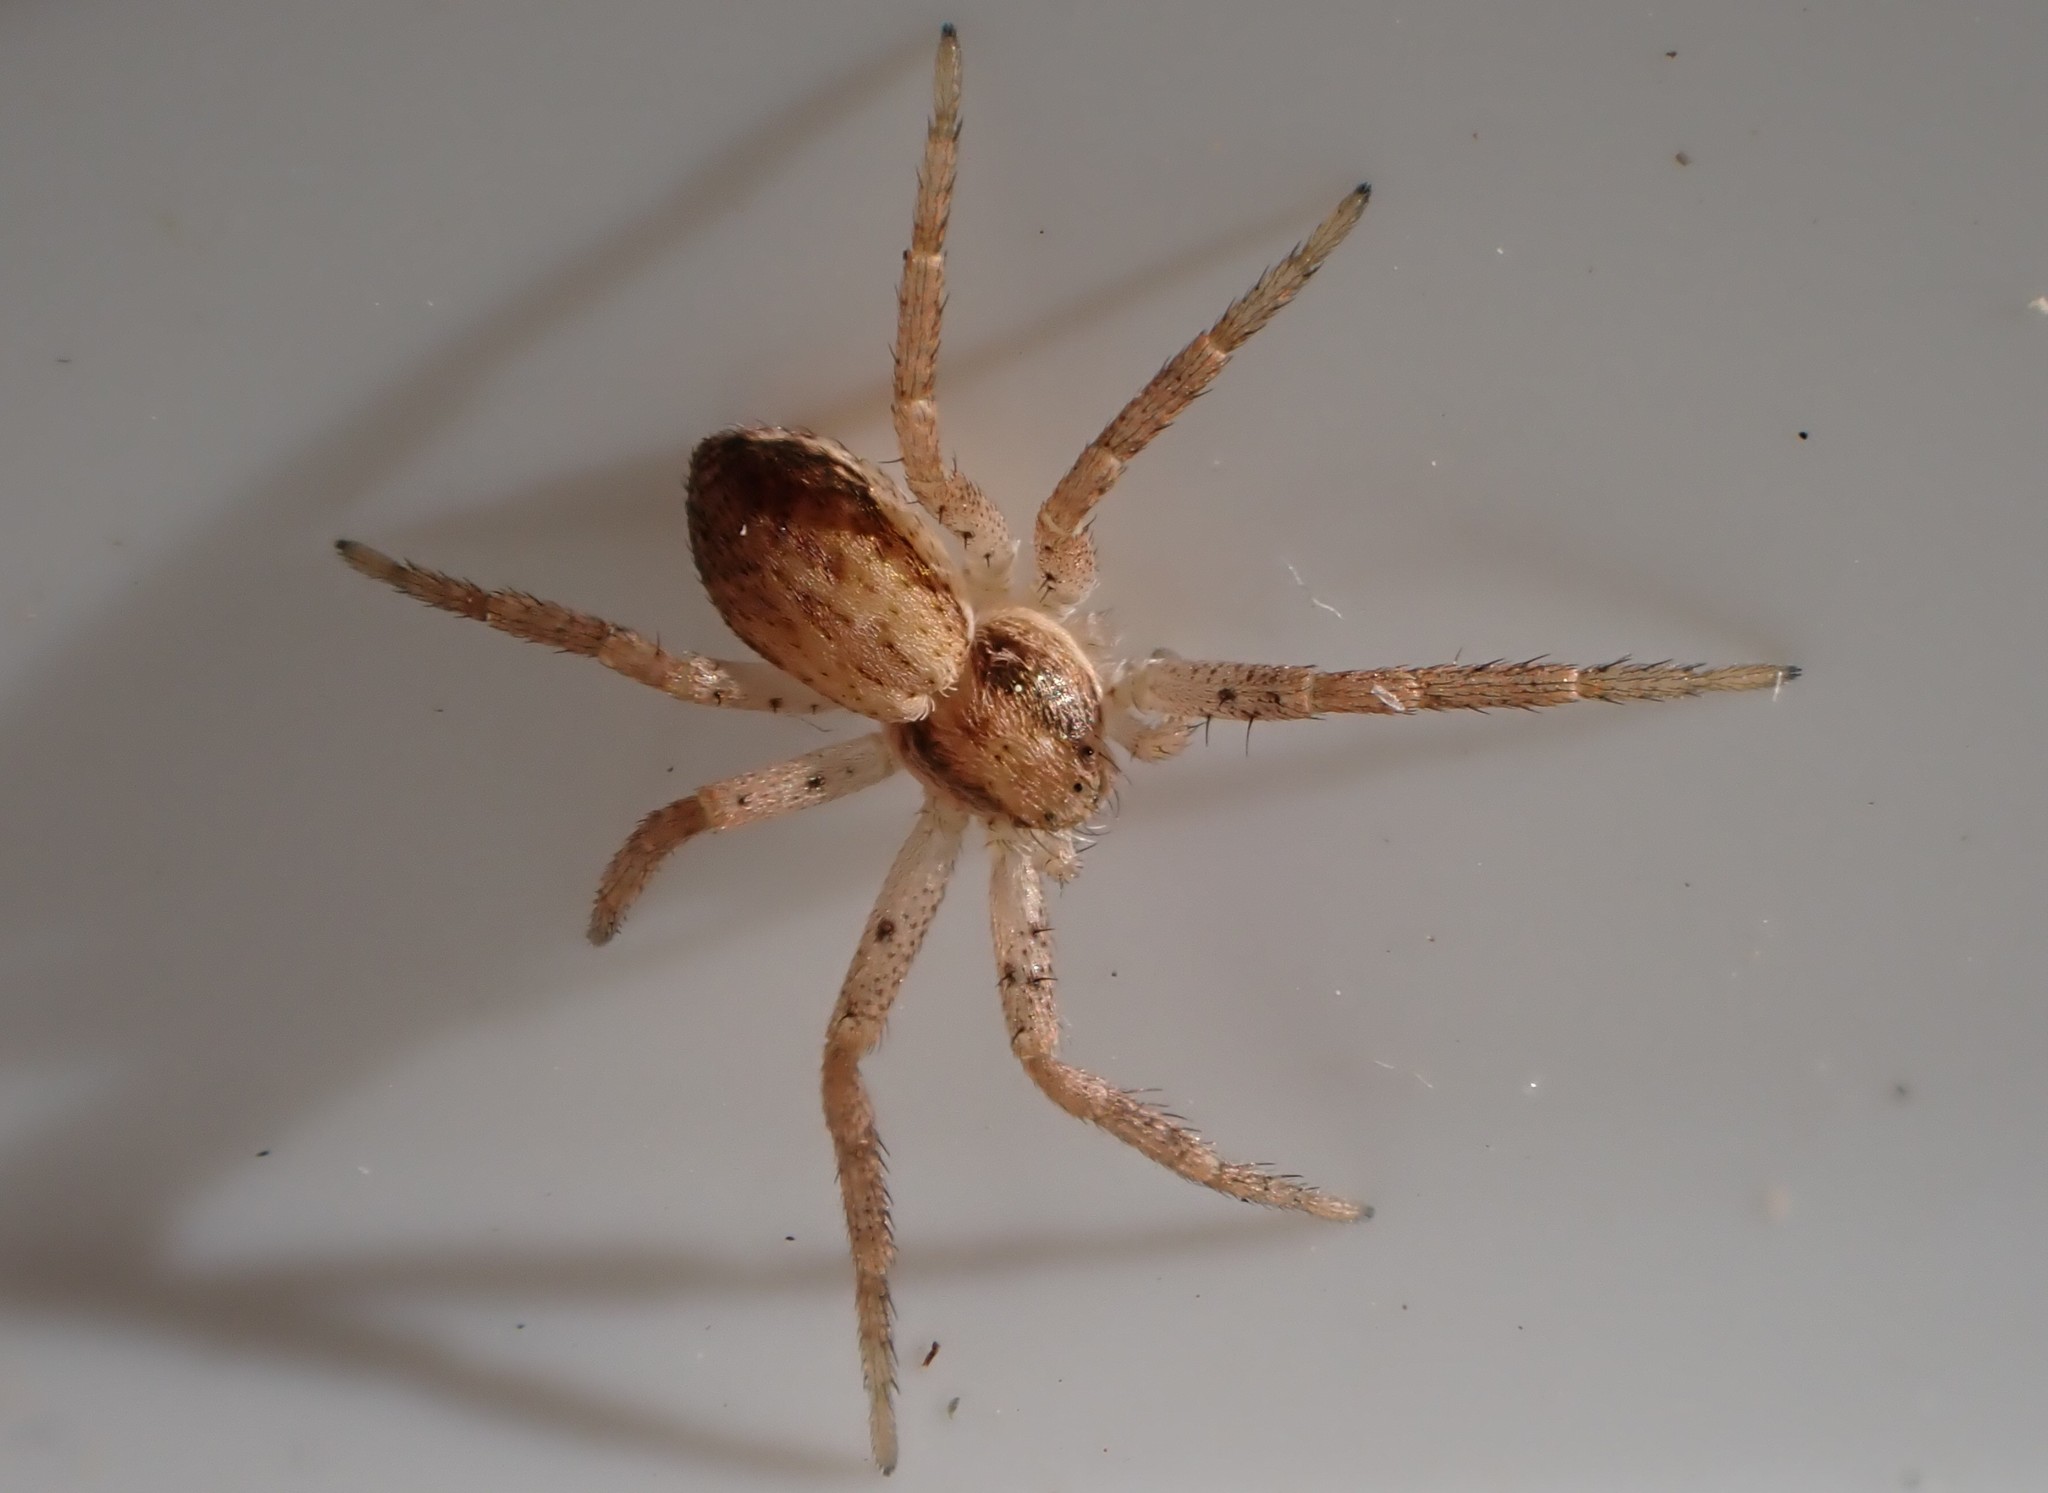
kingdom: Animalia
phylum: Arthropoda
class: Arachnida
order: Araneae
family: Philodromidae
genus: Philodromus
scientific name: Philodromus dispar
